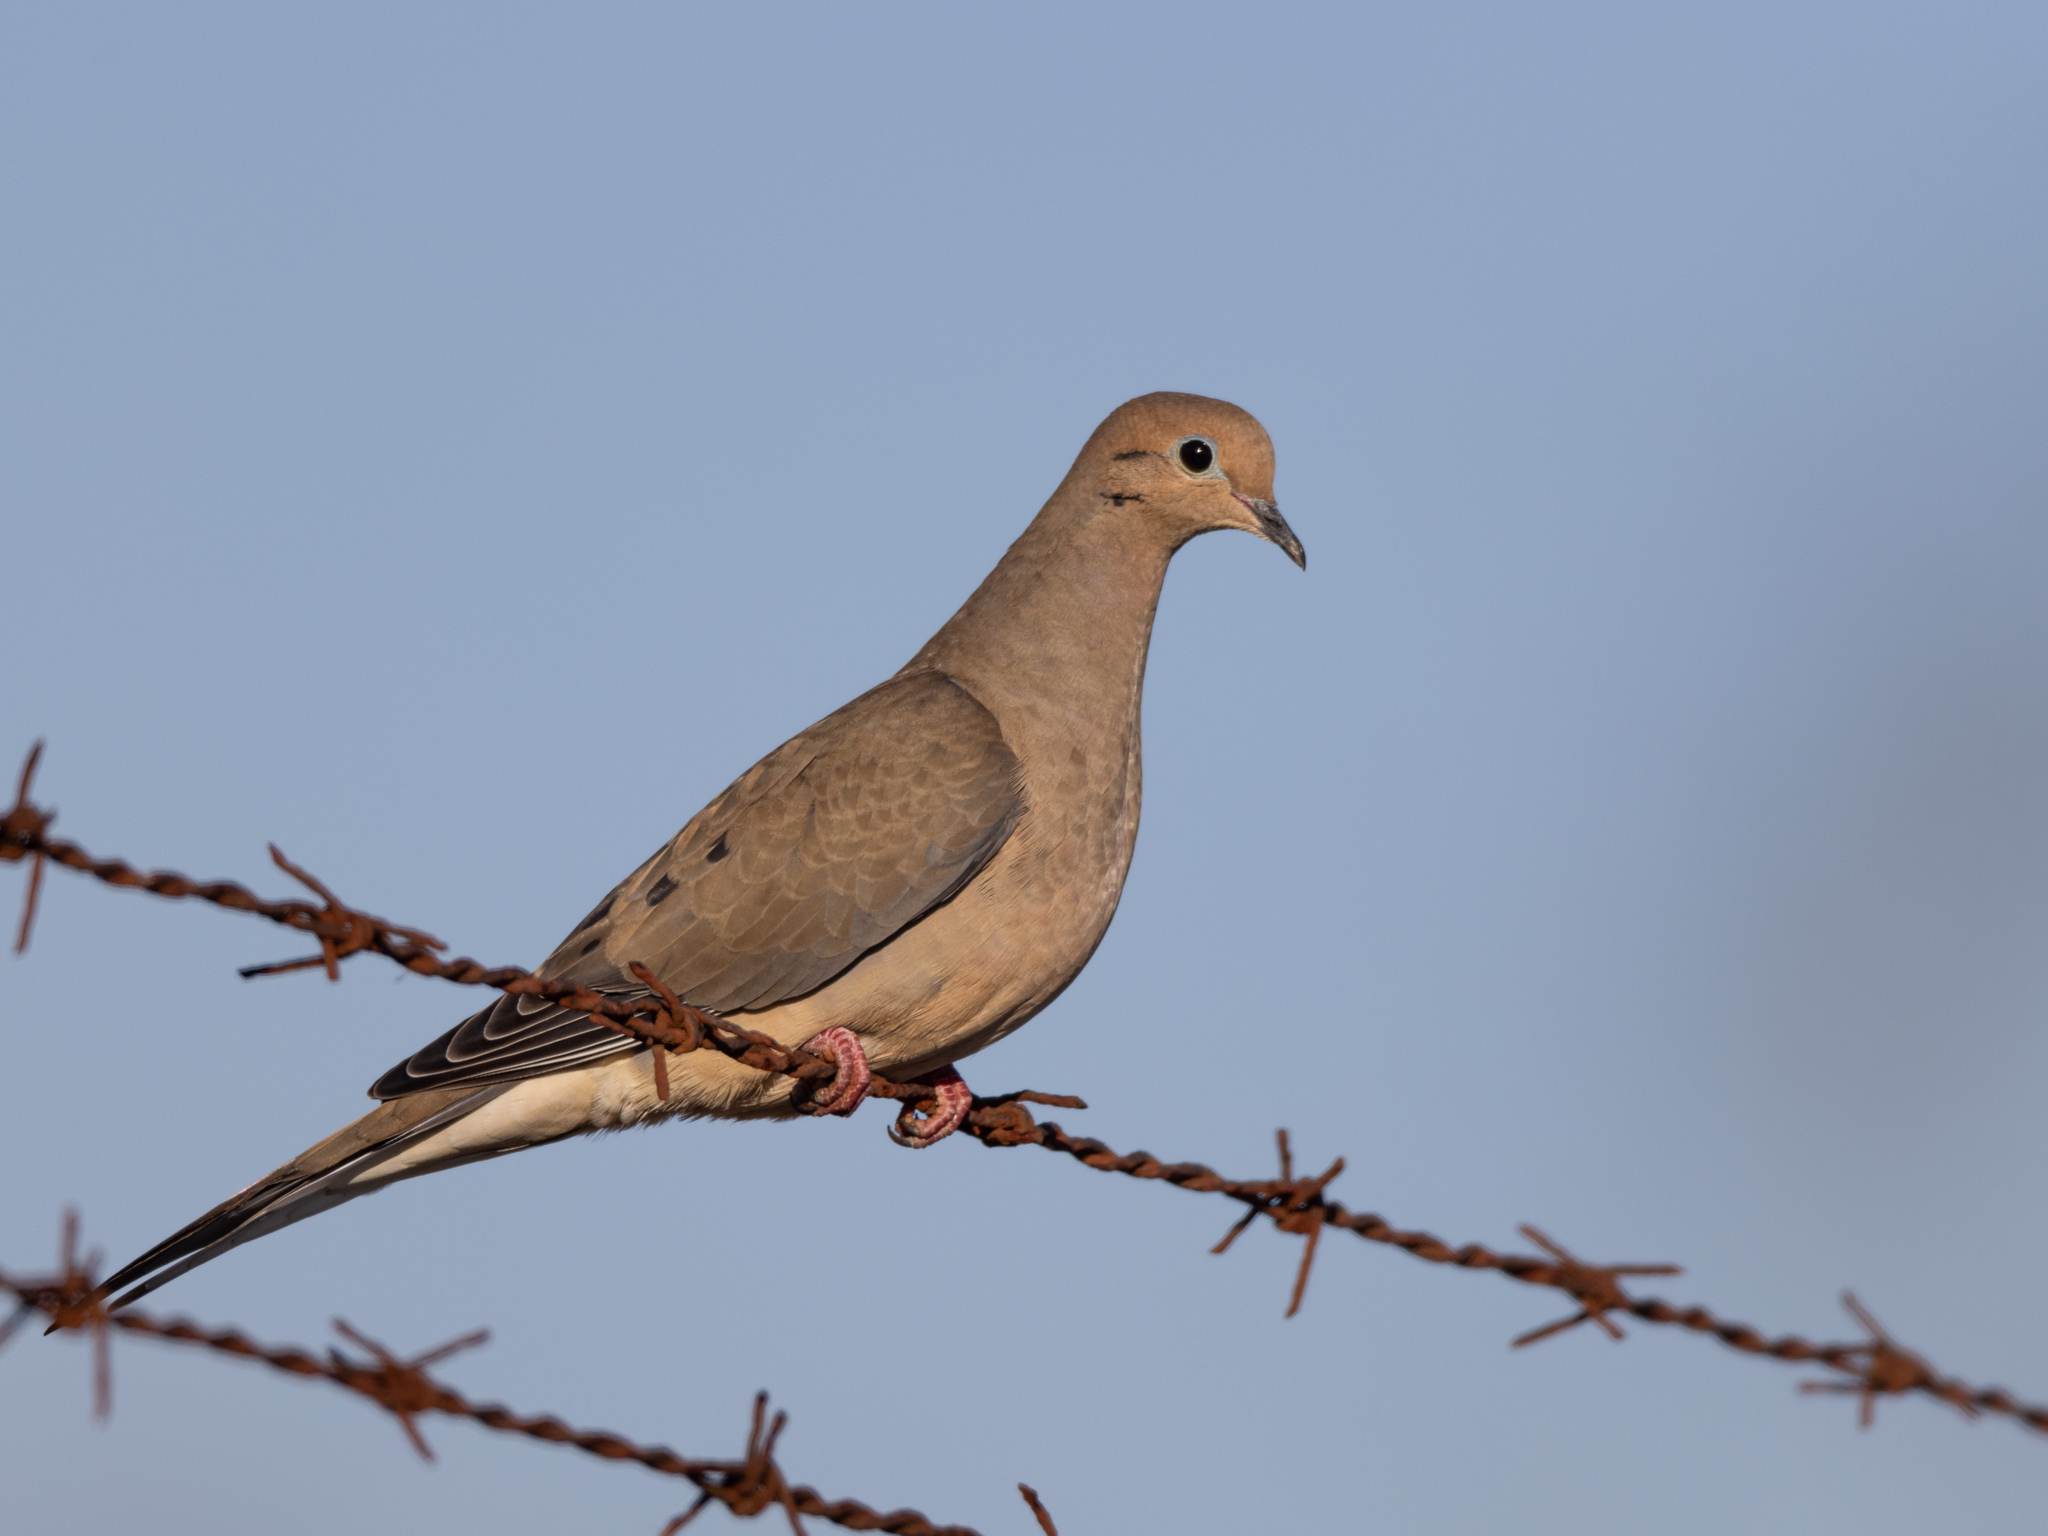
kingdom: Animalia
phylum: Chordata
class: Aves
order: Columbiformes
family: Columbidae
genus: Zenaida
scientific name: Zenaida macroura
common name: Mourning dove
